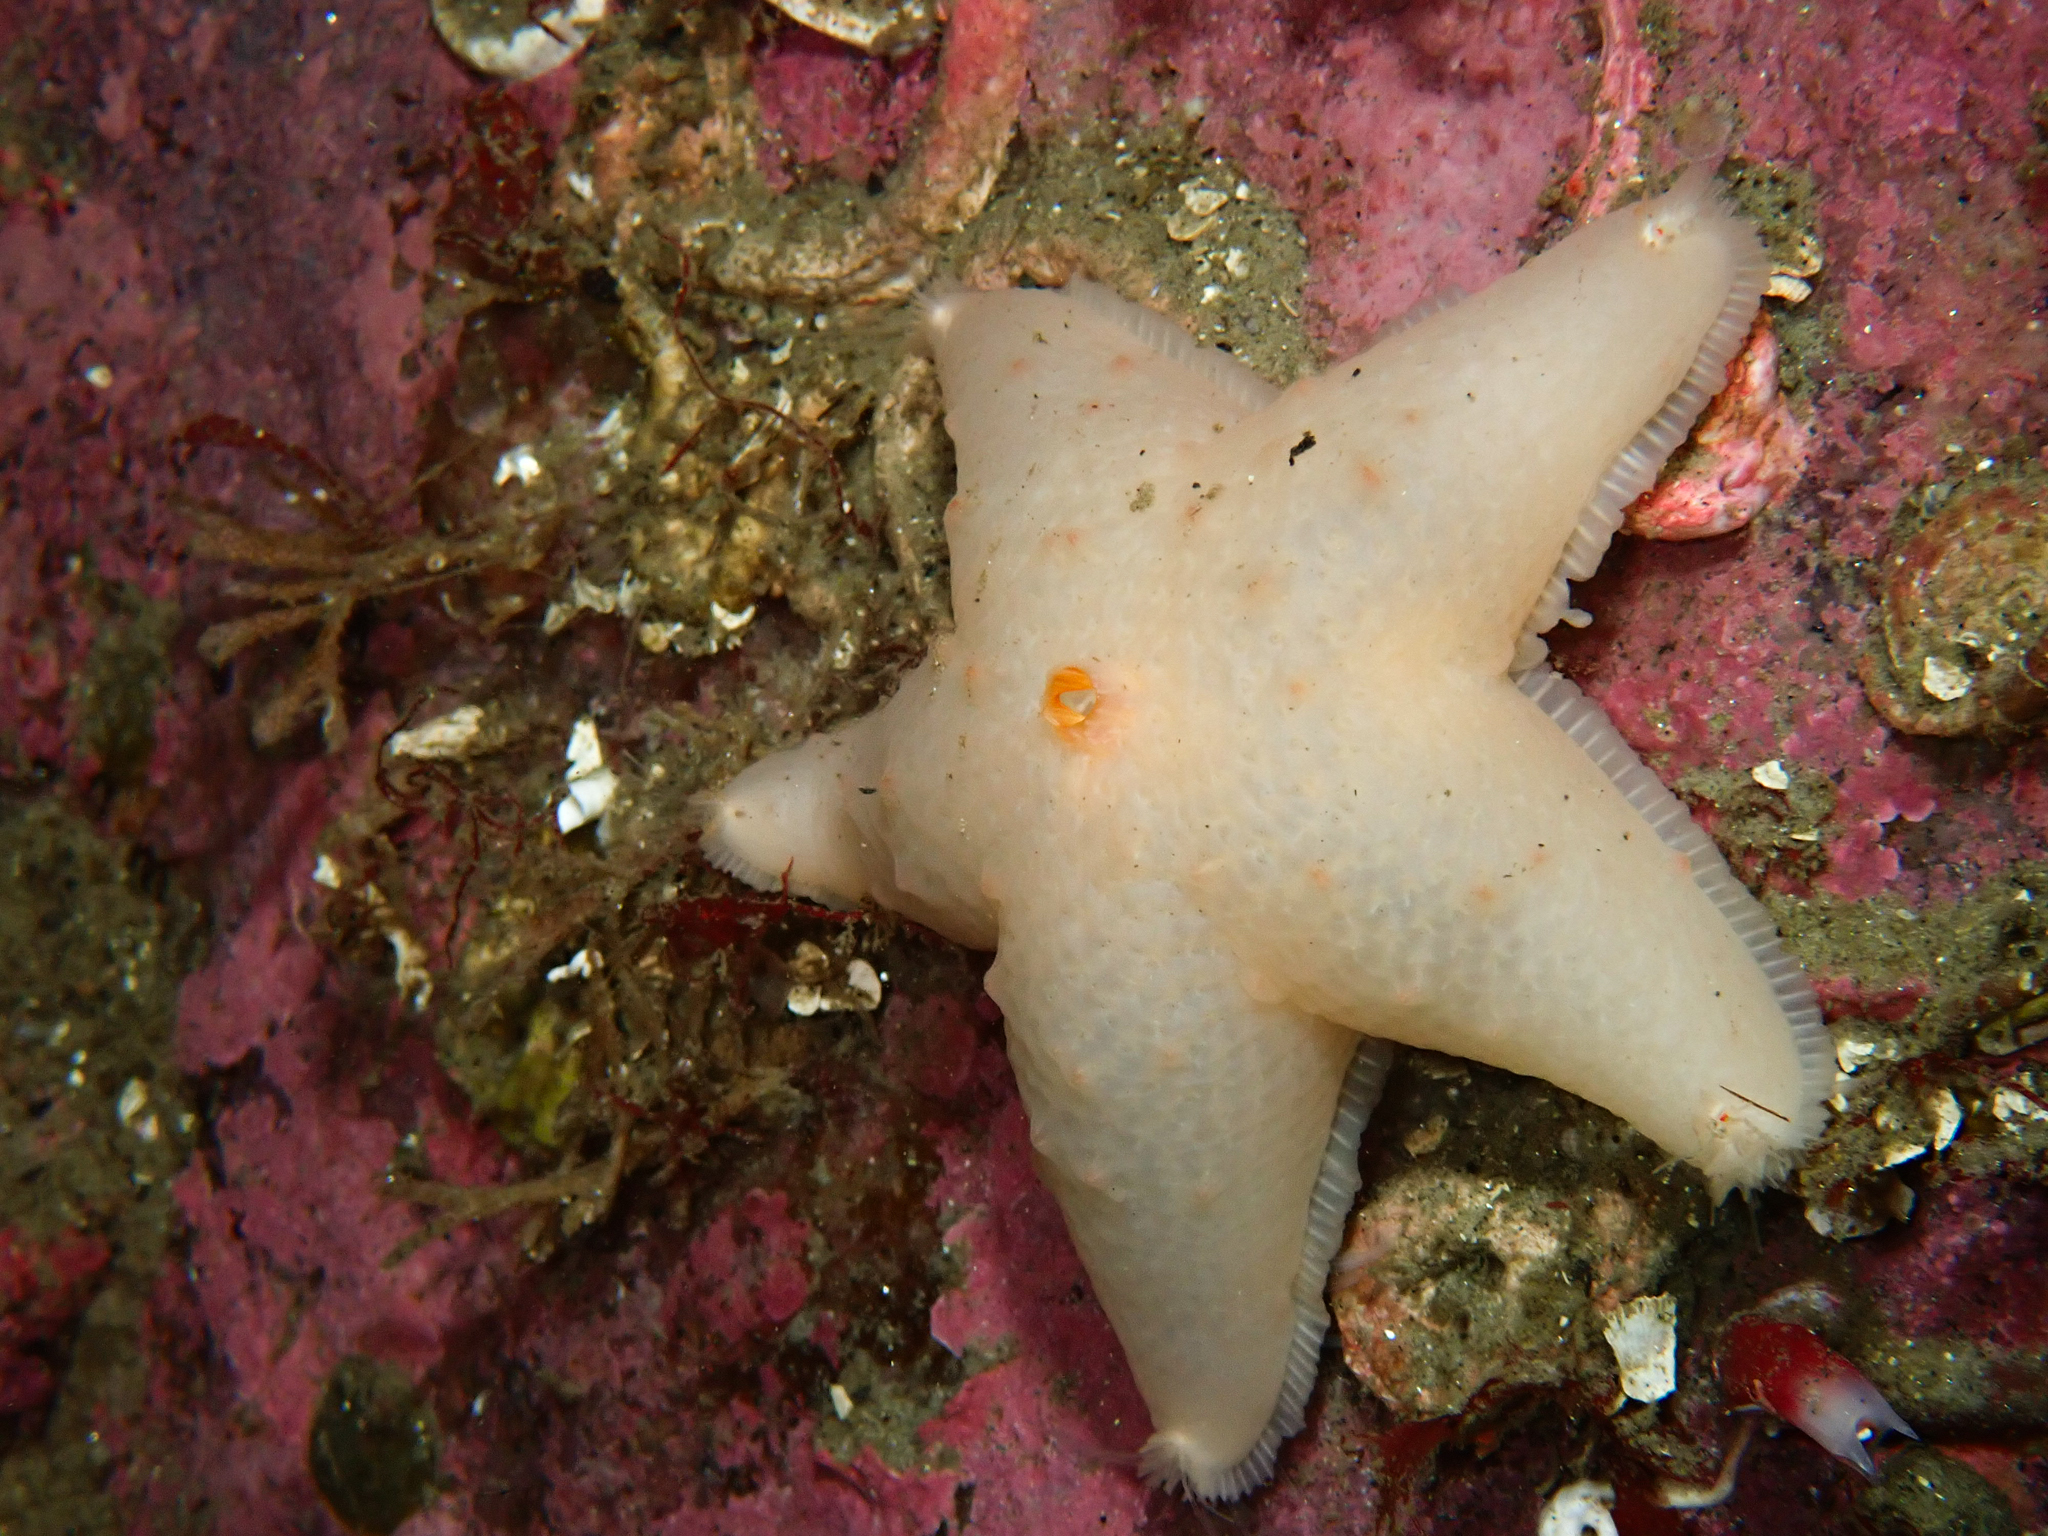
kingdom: Animalia
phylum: Echinodermata
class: Asteroidea
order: Velatida
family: Pterasteridae
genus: Pteraster
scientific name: Pteraster militaris
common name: Wrinkled slime star
